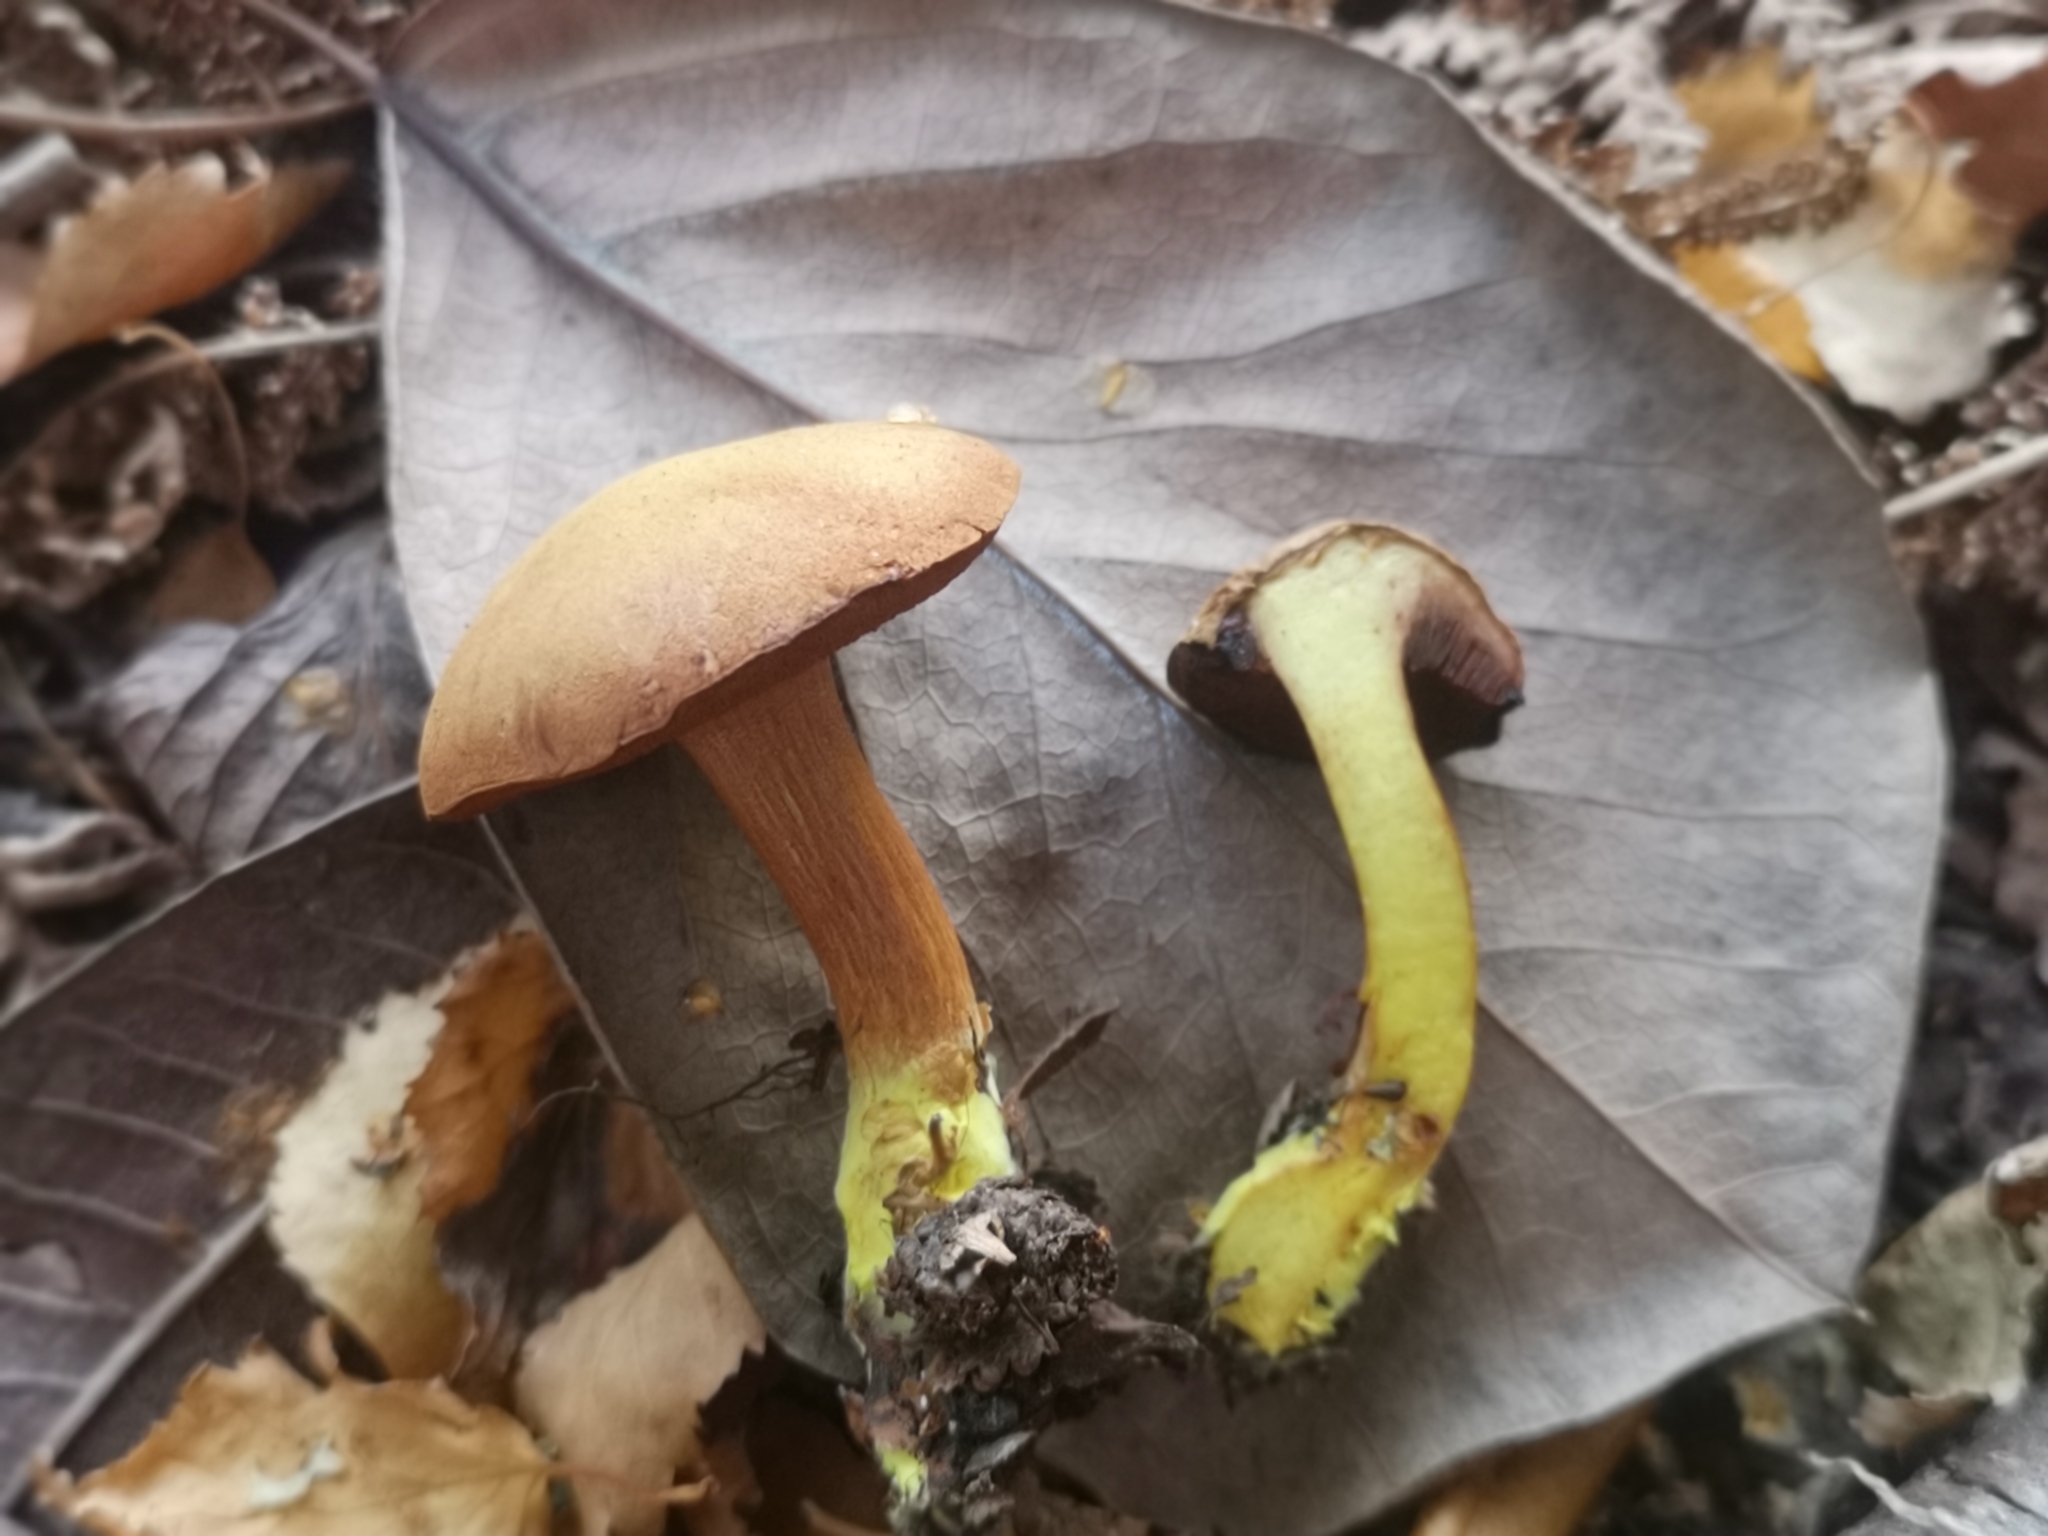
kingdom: Fungi
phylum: Basidiomycota
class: Agaricomycetes
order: Boletales
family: Boletaceae
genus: Chalciporus
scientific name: Chalciporus piperatus
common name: Peppery bolete
